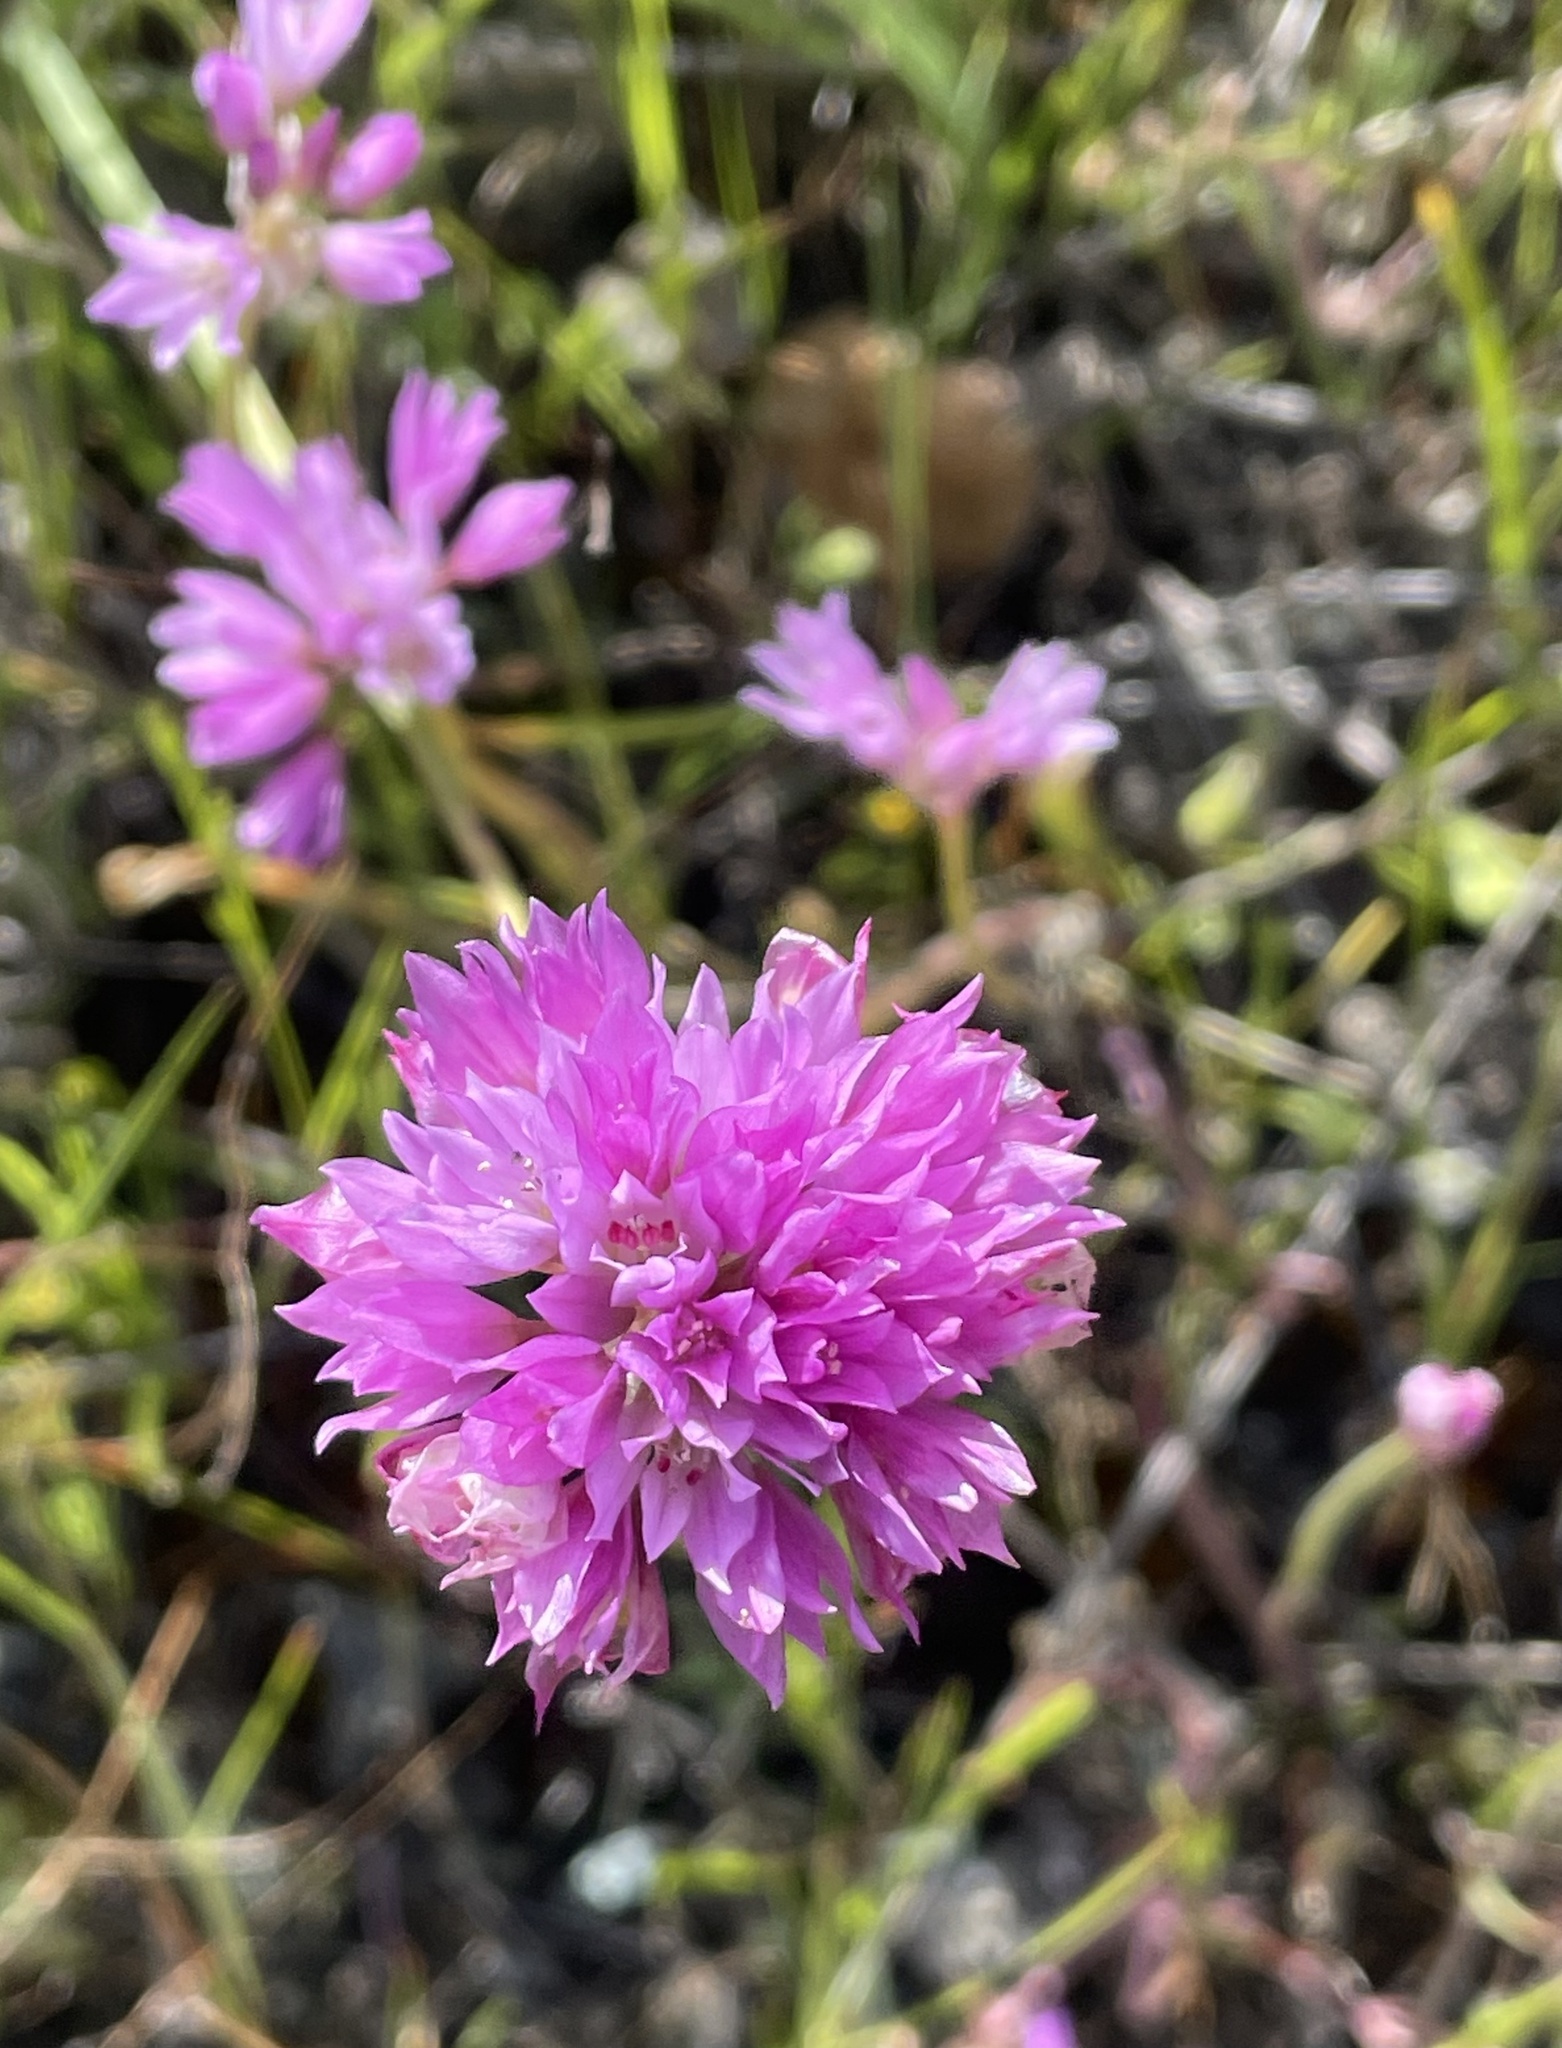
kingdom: Plantae
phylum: Tracheophyta
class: Liliopsida
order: Asparagales
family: Amaryllidaceae
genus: Allium
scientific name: Allium serra
